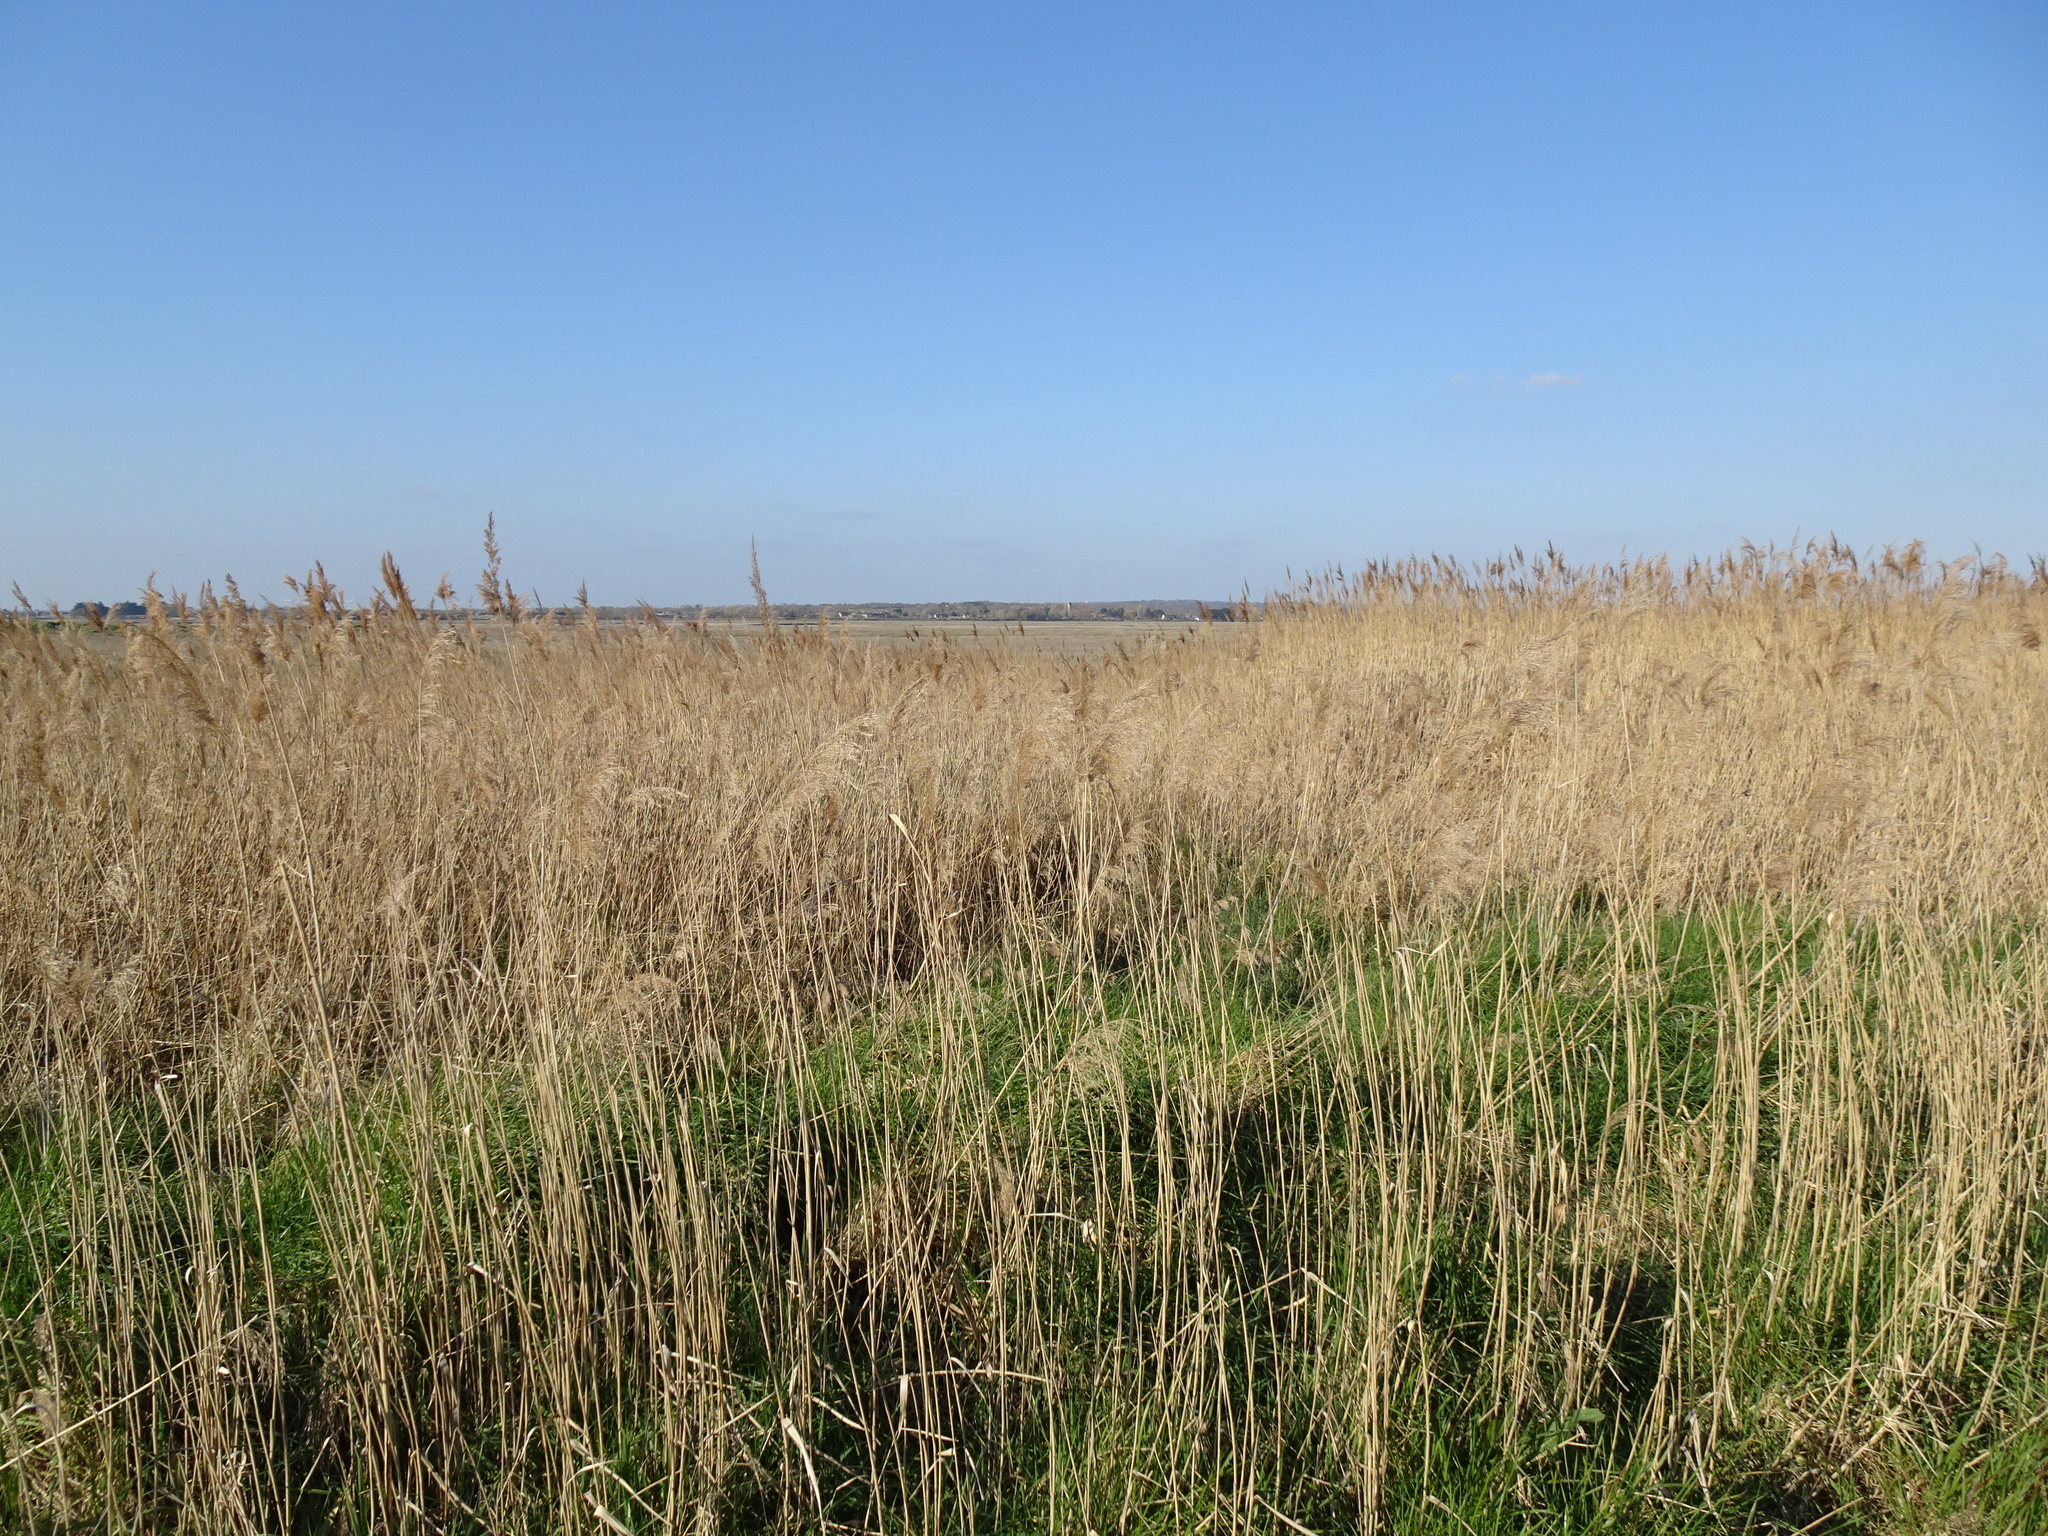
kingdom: Plantae
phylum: Tracheophyta
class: Liliopsida
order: Poales
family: Poaceae
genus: Phragmites
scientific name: Phragmites australis
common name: Common reed
